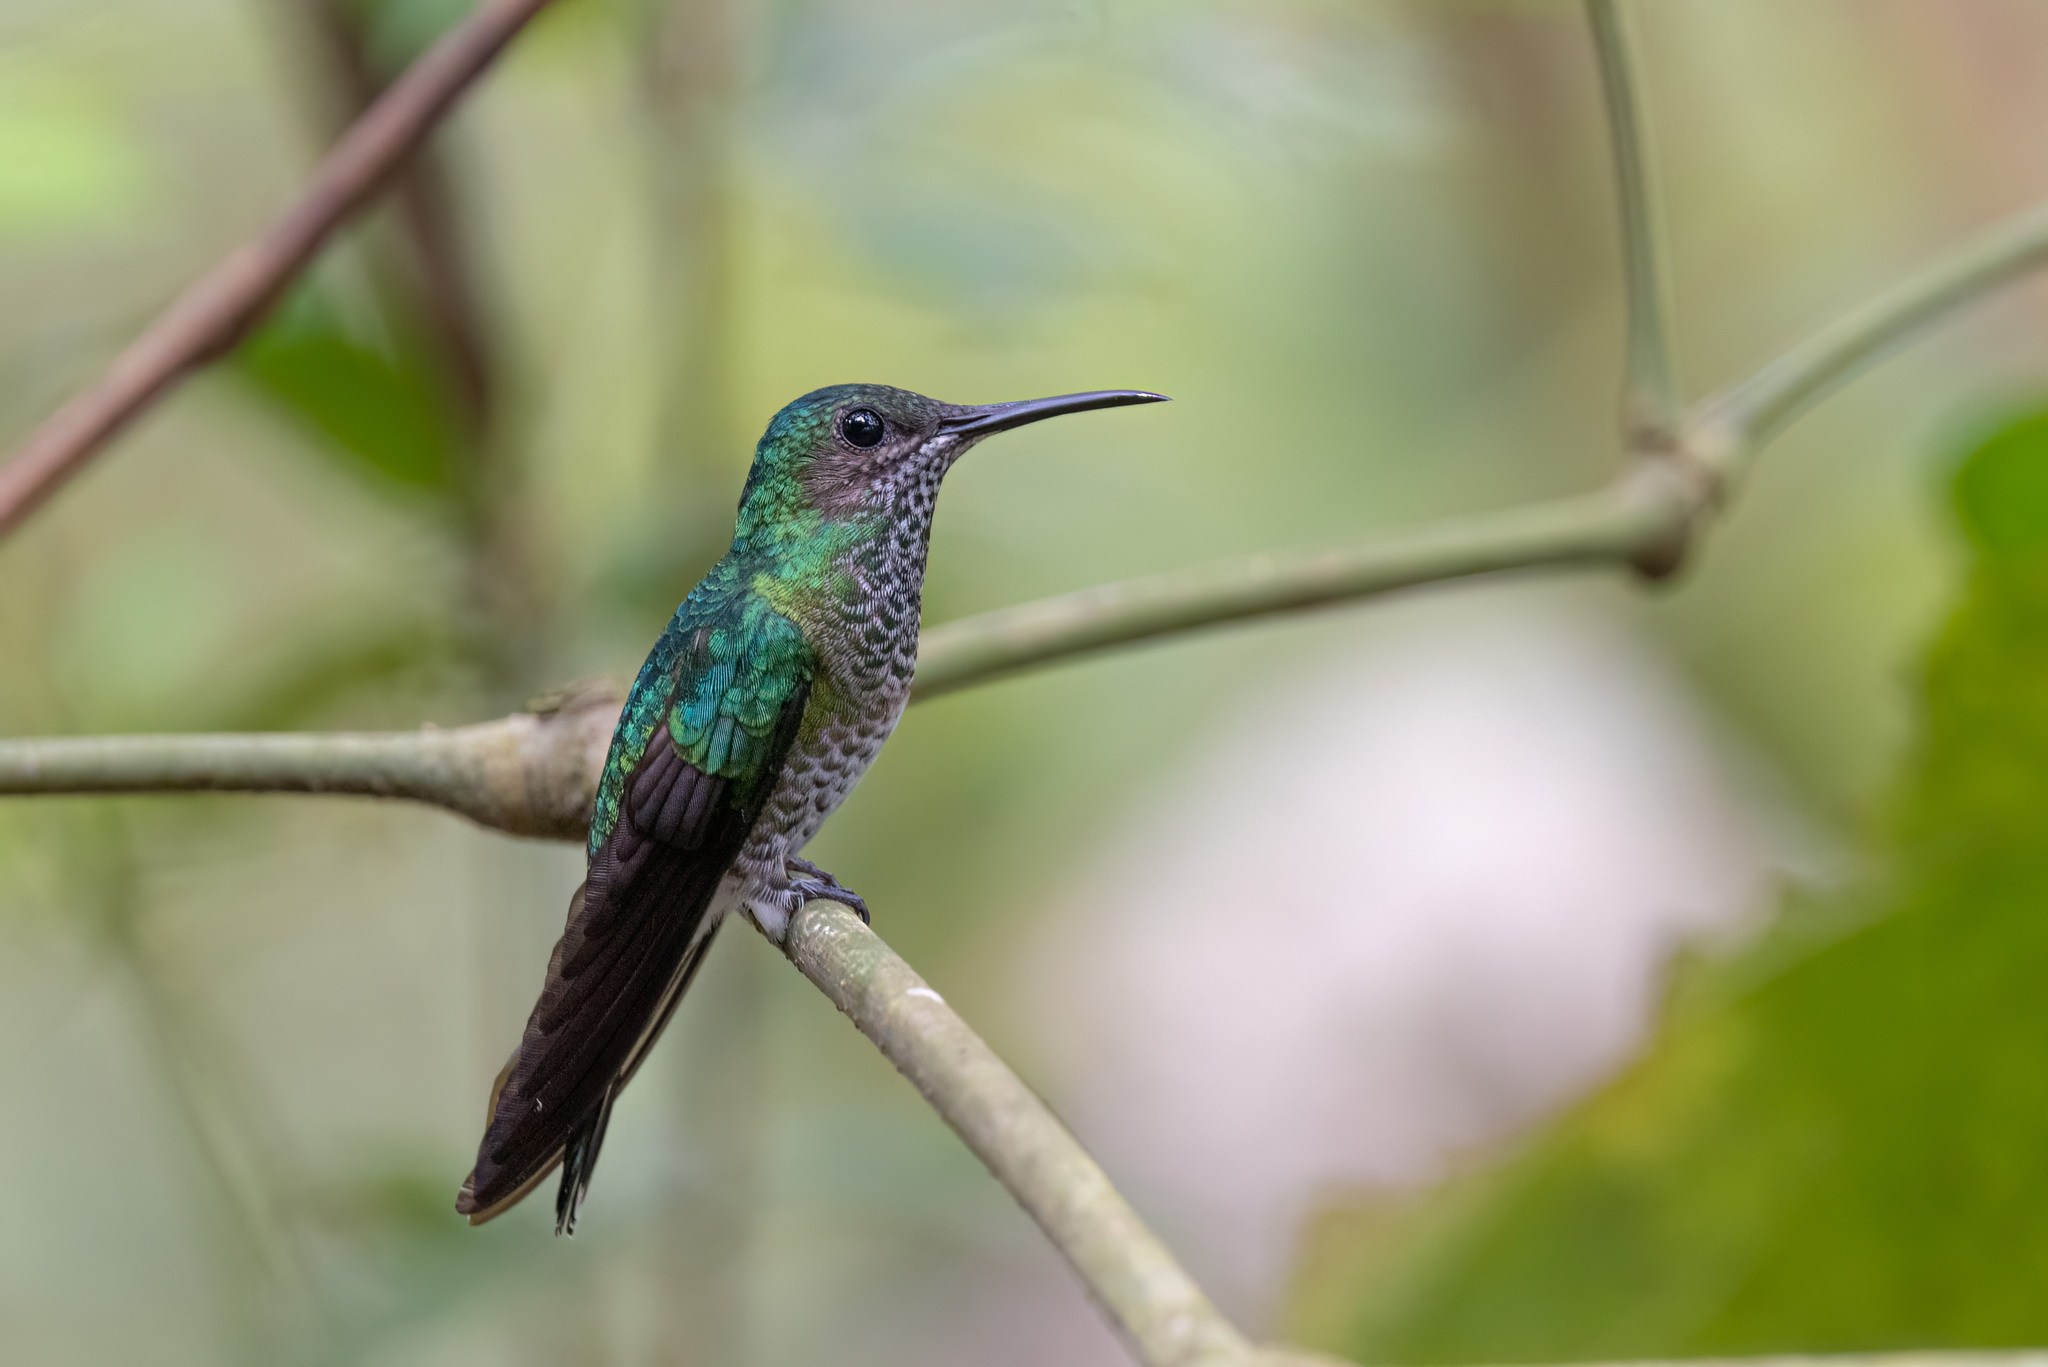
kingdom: Animalia
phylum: Chordata
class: Aves
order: Apodiformes
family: Trochilidae
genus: Florisuga
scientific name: Florisuga mellivora
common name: White-necked jacobin
